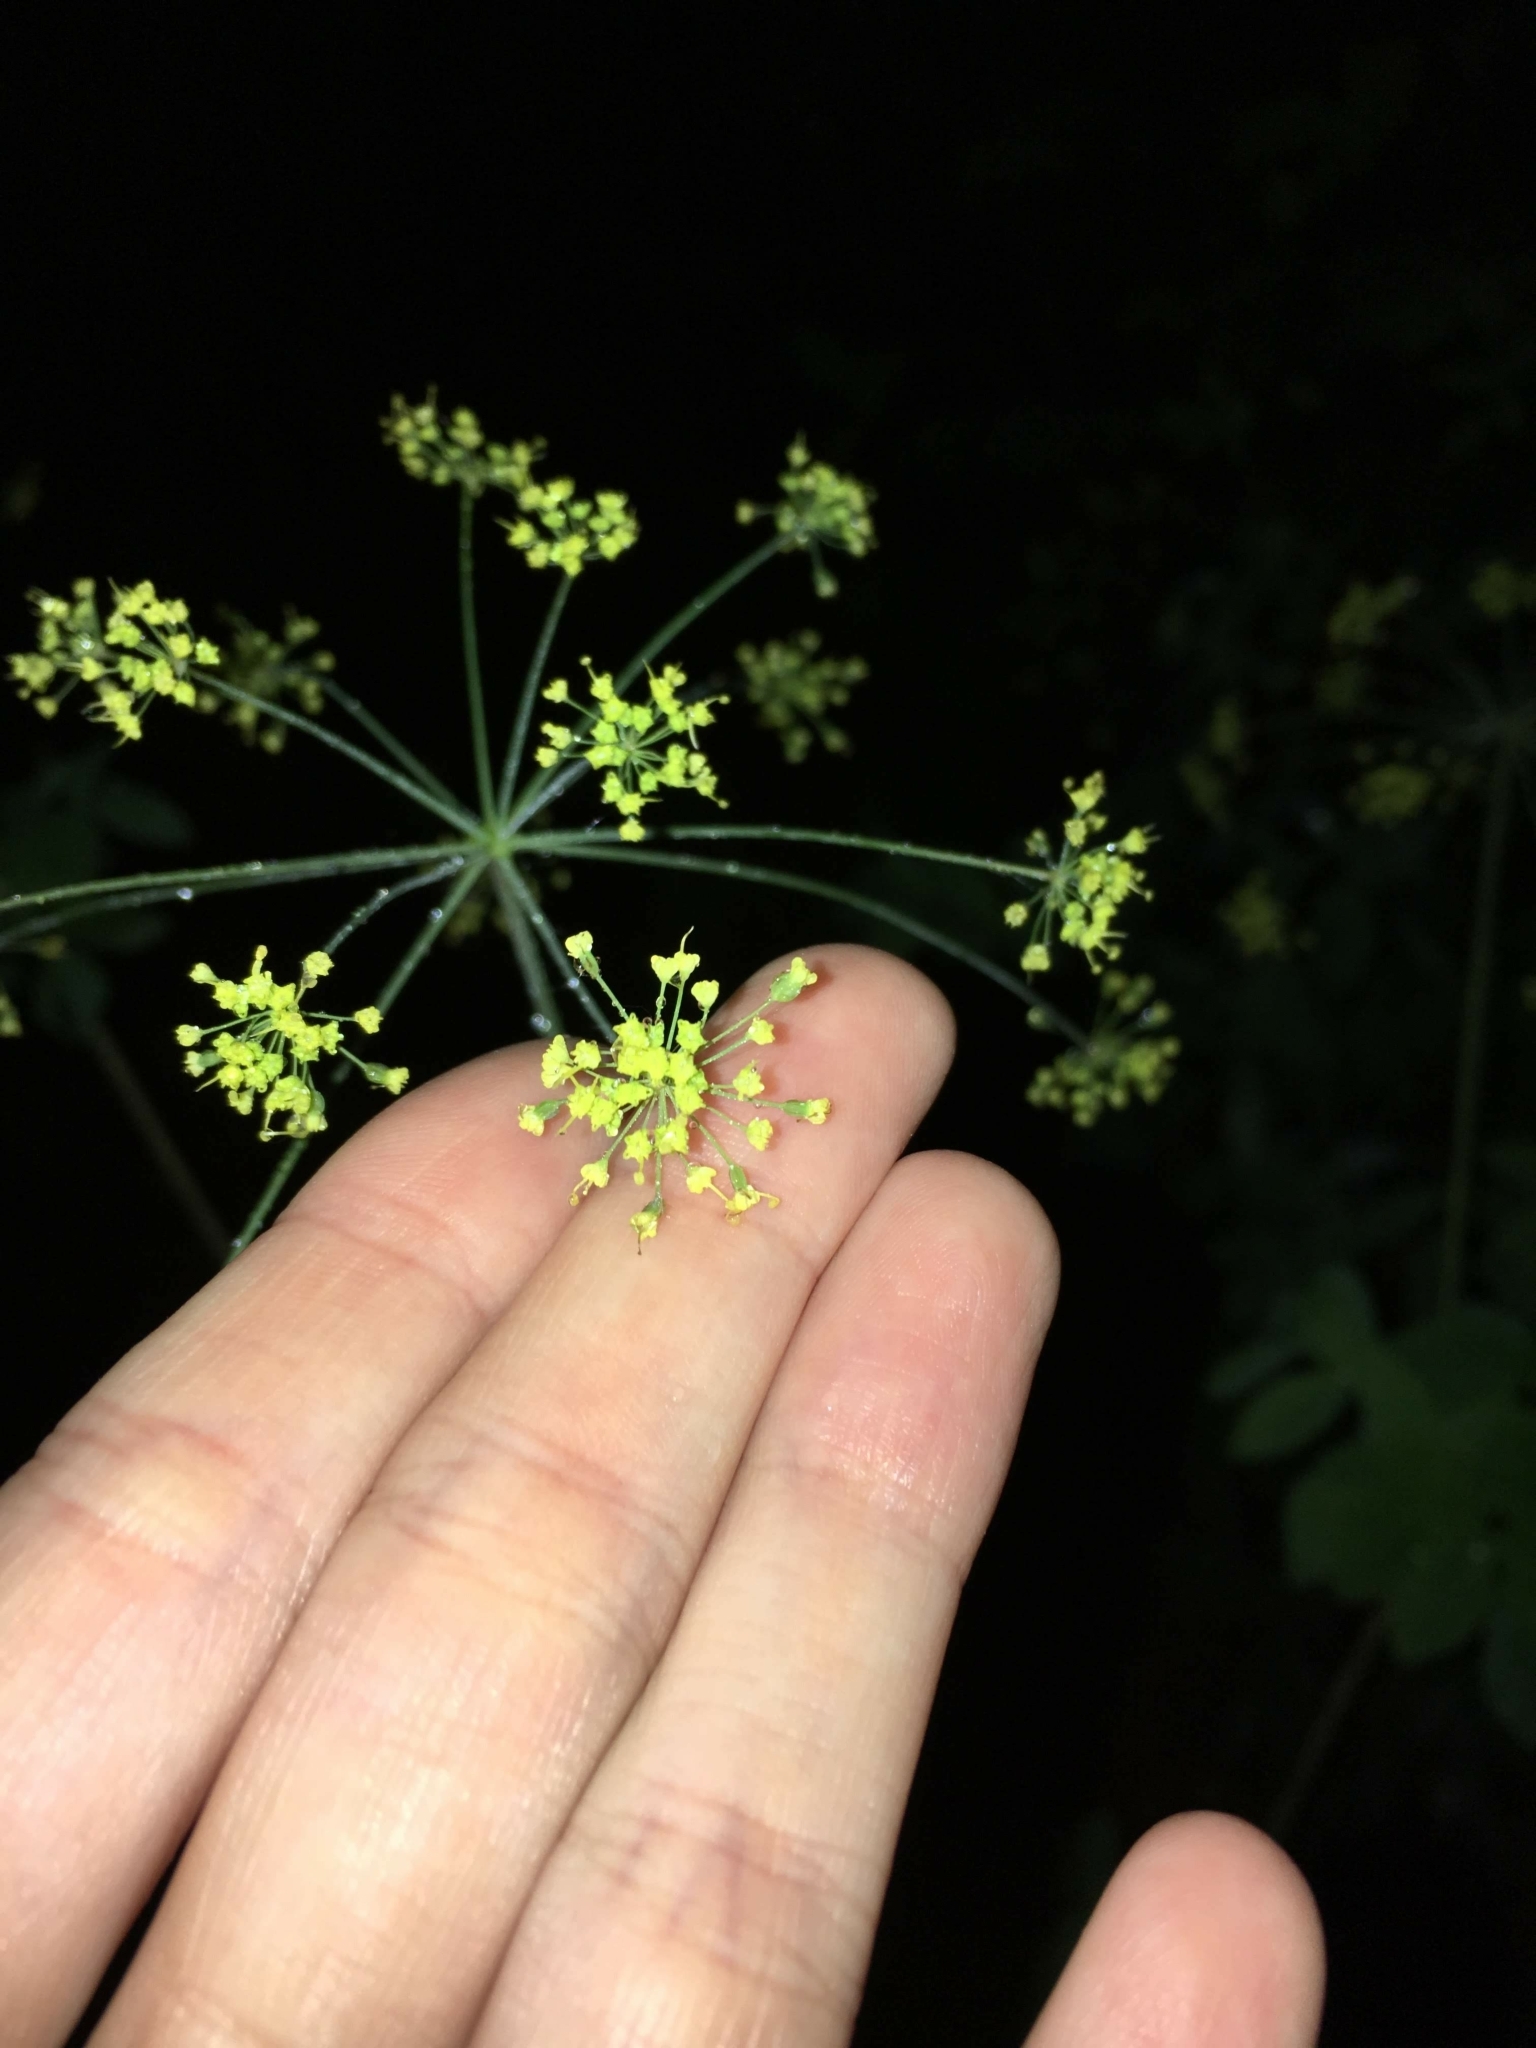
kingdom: Plantae
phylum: Tracheophyta
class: Magnoliopsida
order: Apiales
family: Apiaceae
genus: Taenidia
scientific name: Taenidia integerrima
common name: Golden alexander
